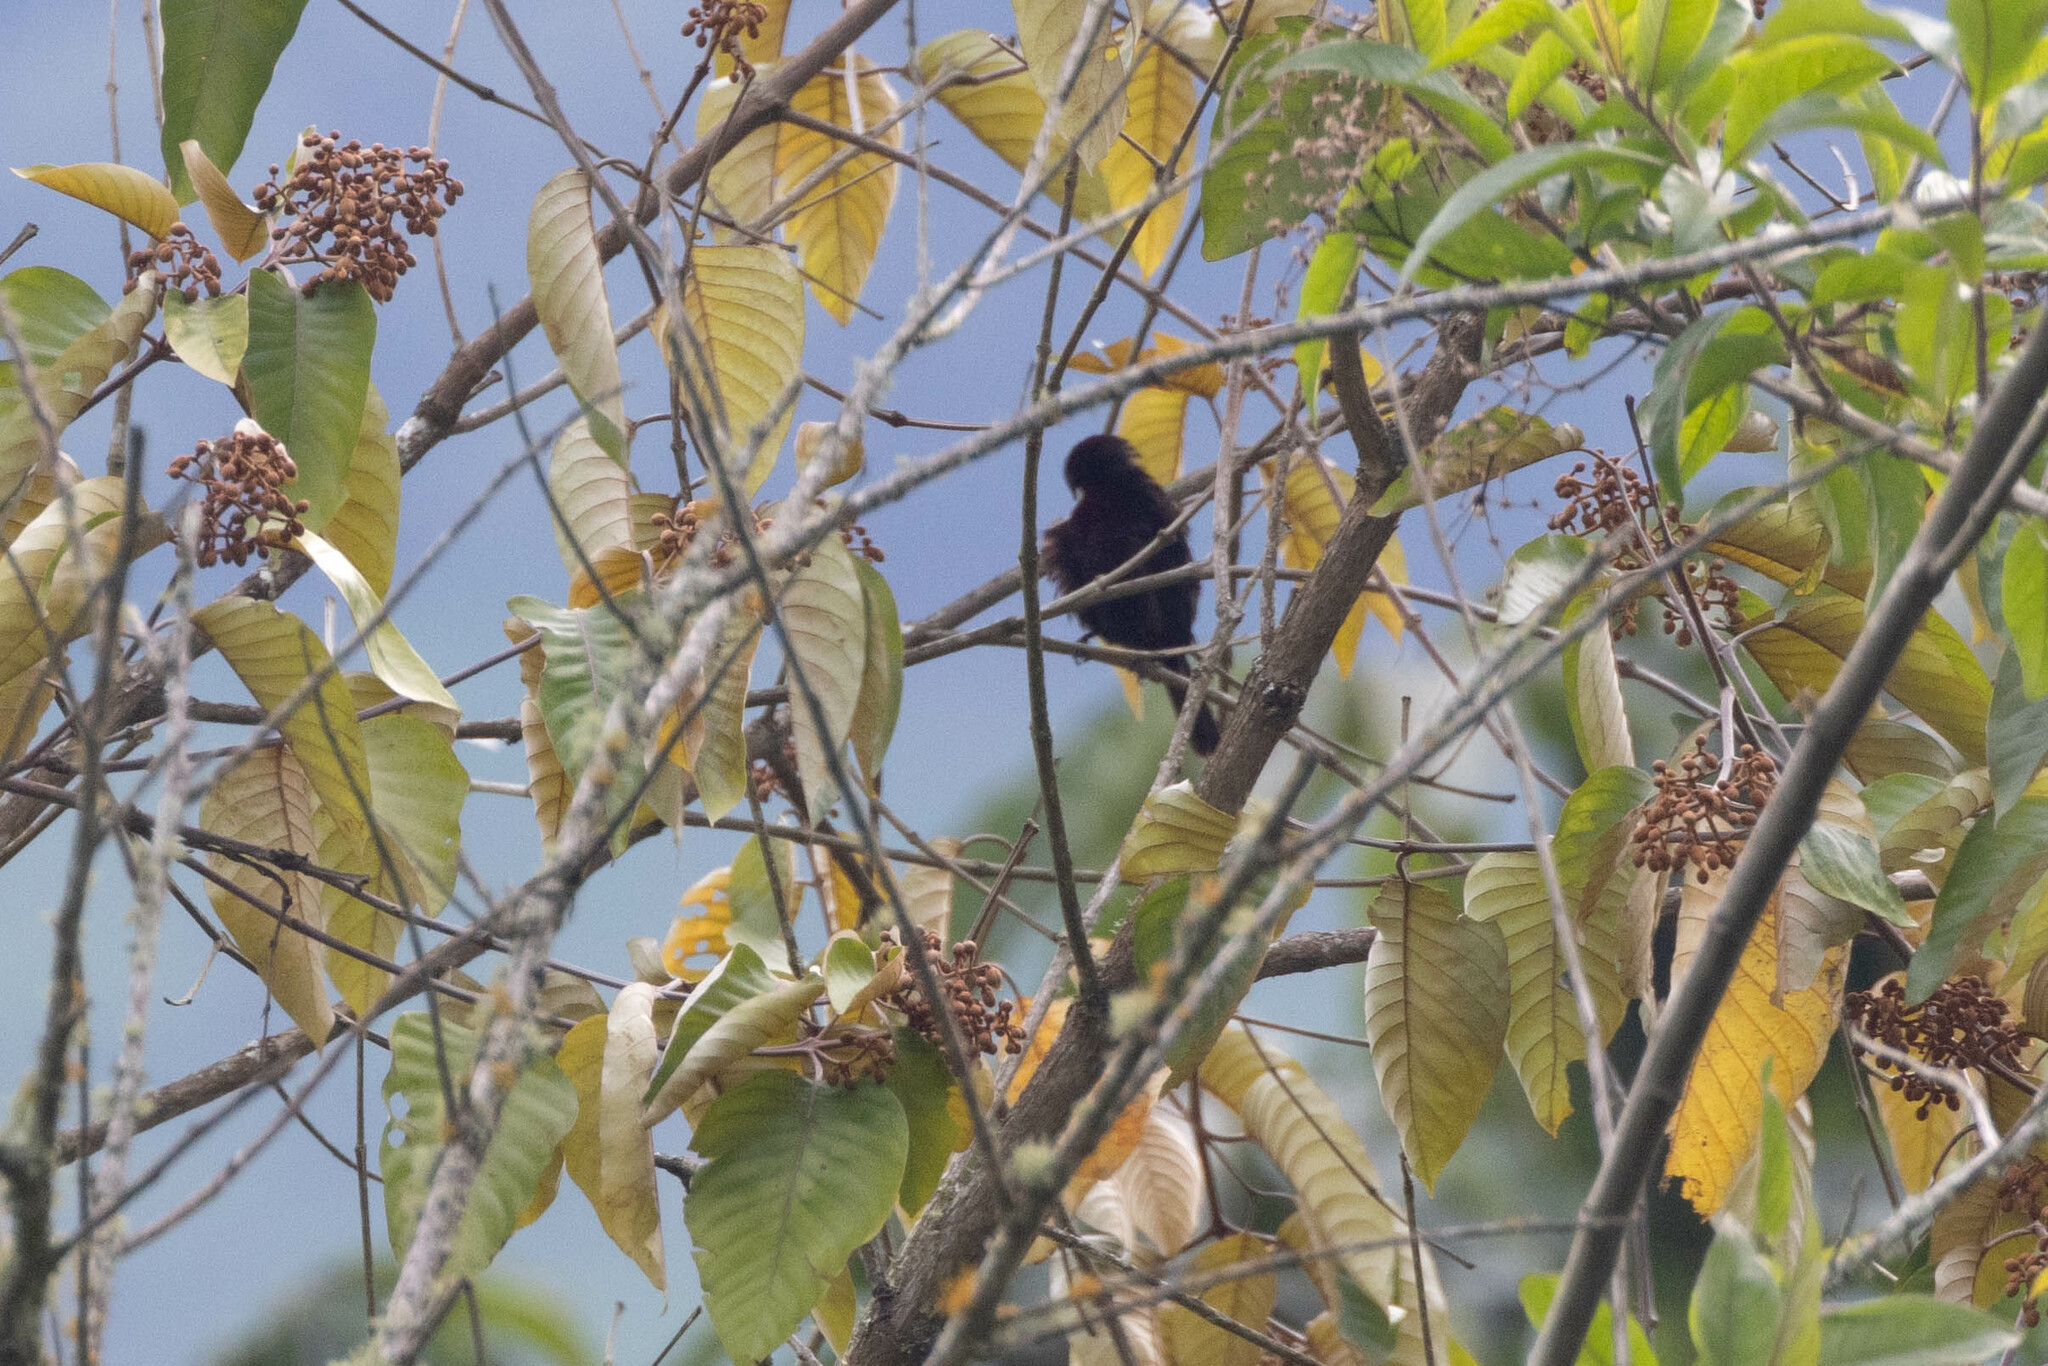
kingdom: Animalia
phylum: Chordata
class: Aves
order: Passeriformes
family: Thraupidae
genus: Ramphocelus
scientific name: Ramphocelus carbo
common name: Silver-beaked tanager
